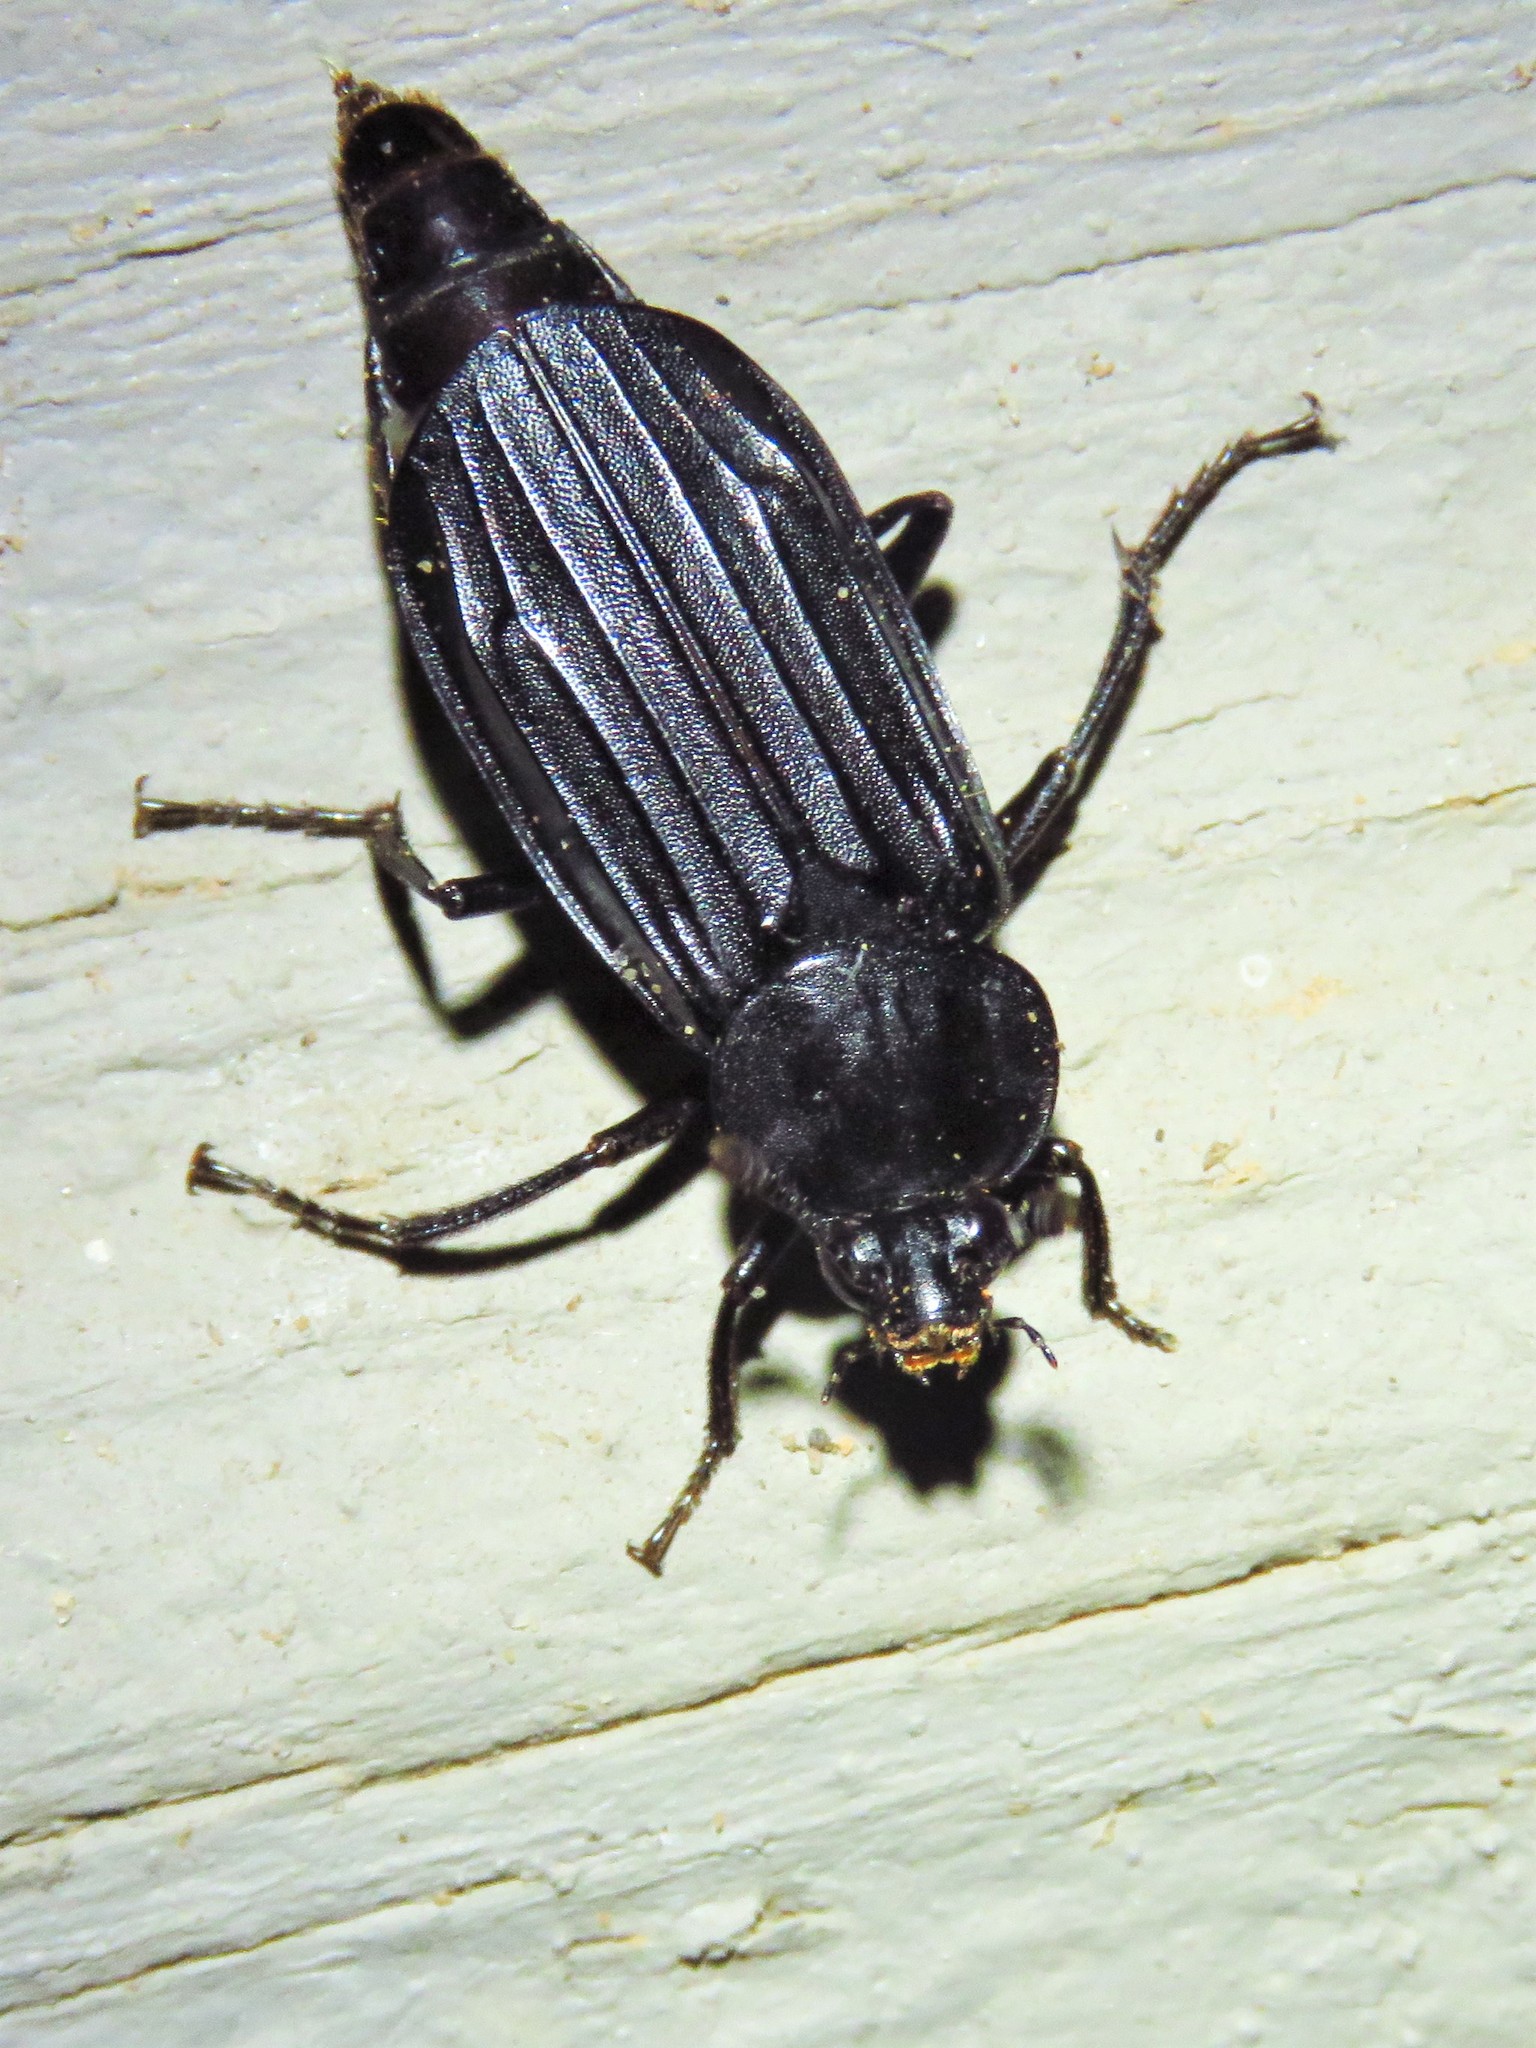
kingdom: Animalia
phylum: Arthropoda
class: Insecta
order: Coleoptera
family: Staphylinidae
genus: Necrodes
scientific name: Necrodes surinamensis
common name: Red-lined carrion beetle
